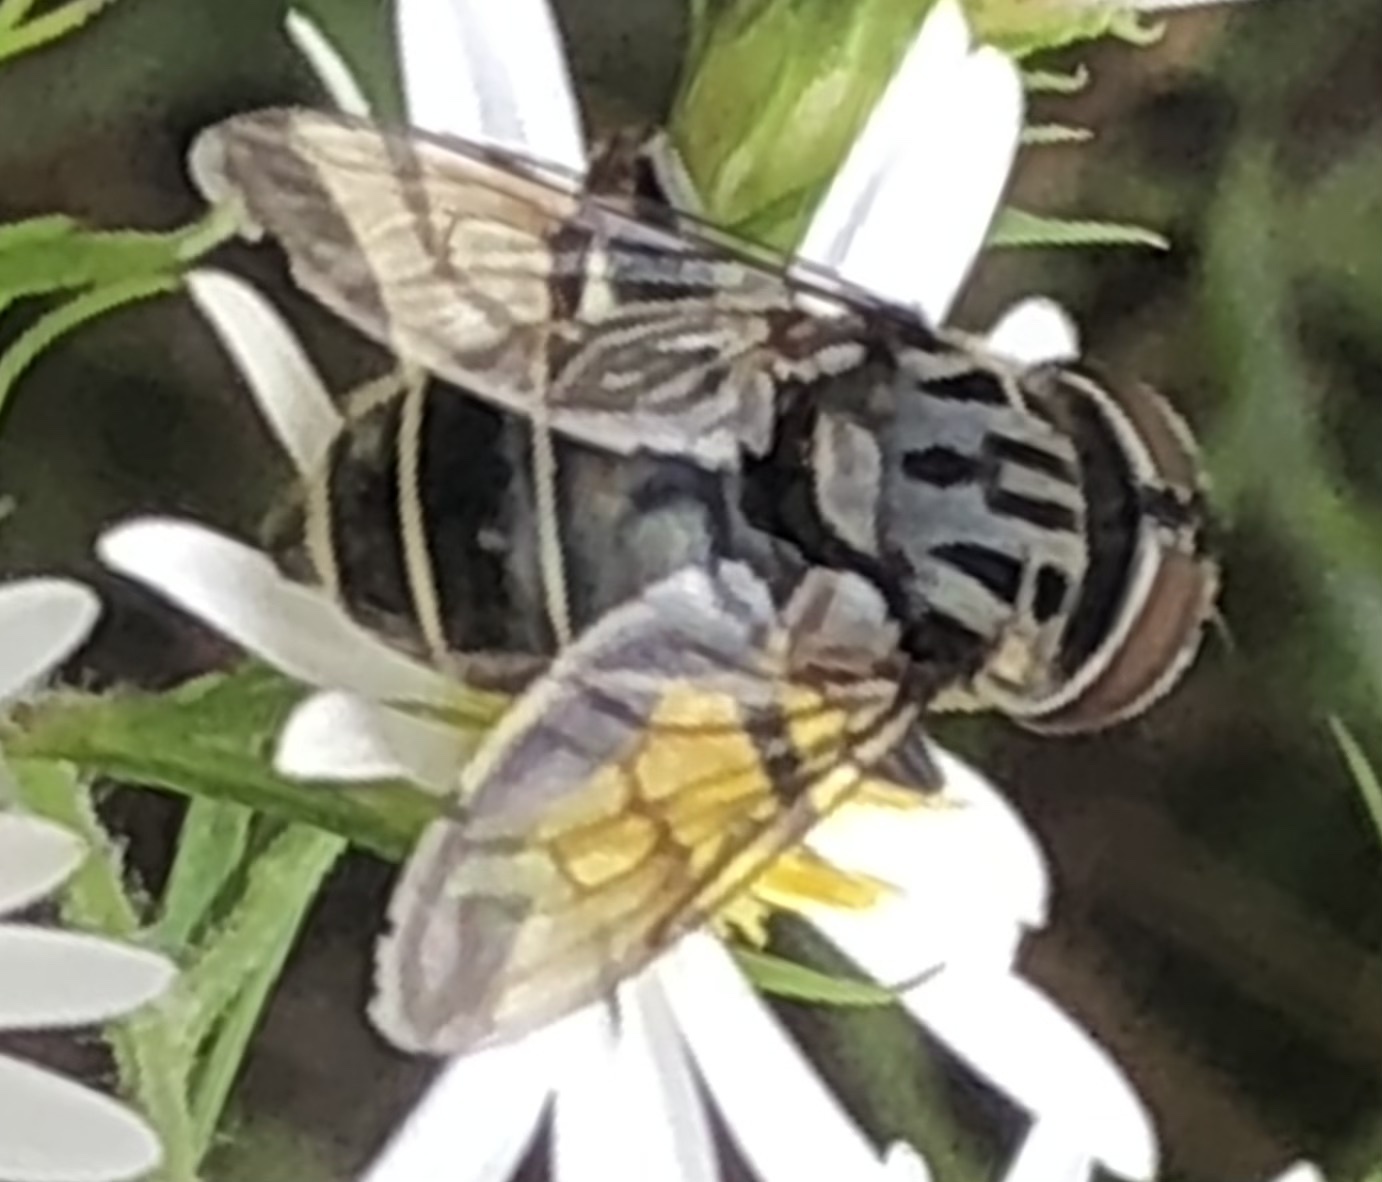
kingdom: Animalia
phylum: Arthropoda
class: Insecta
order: Diptera
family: Syrphidae
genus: Palpada
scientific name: Palpada furcata
